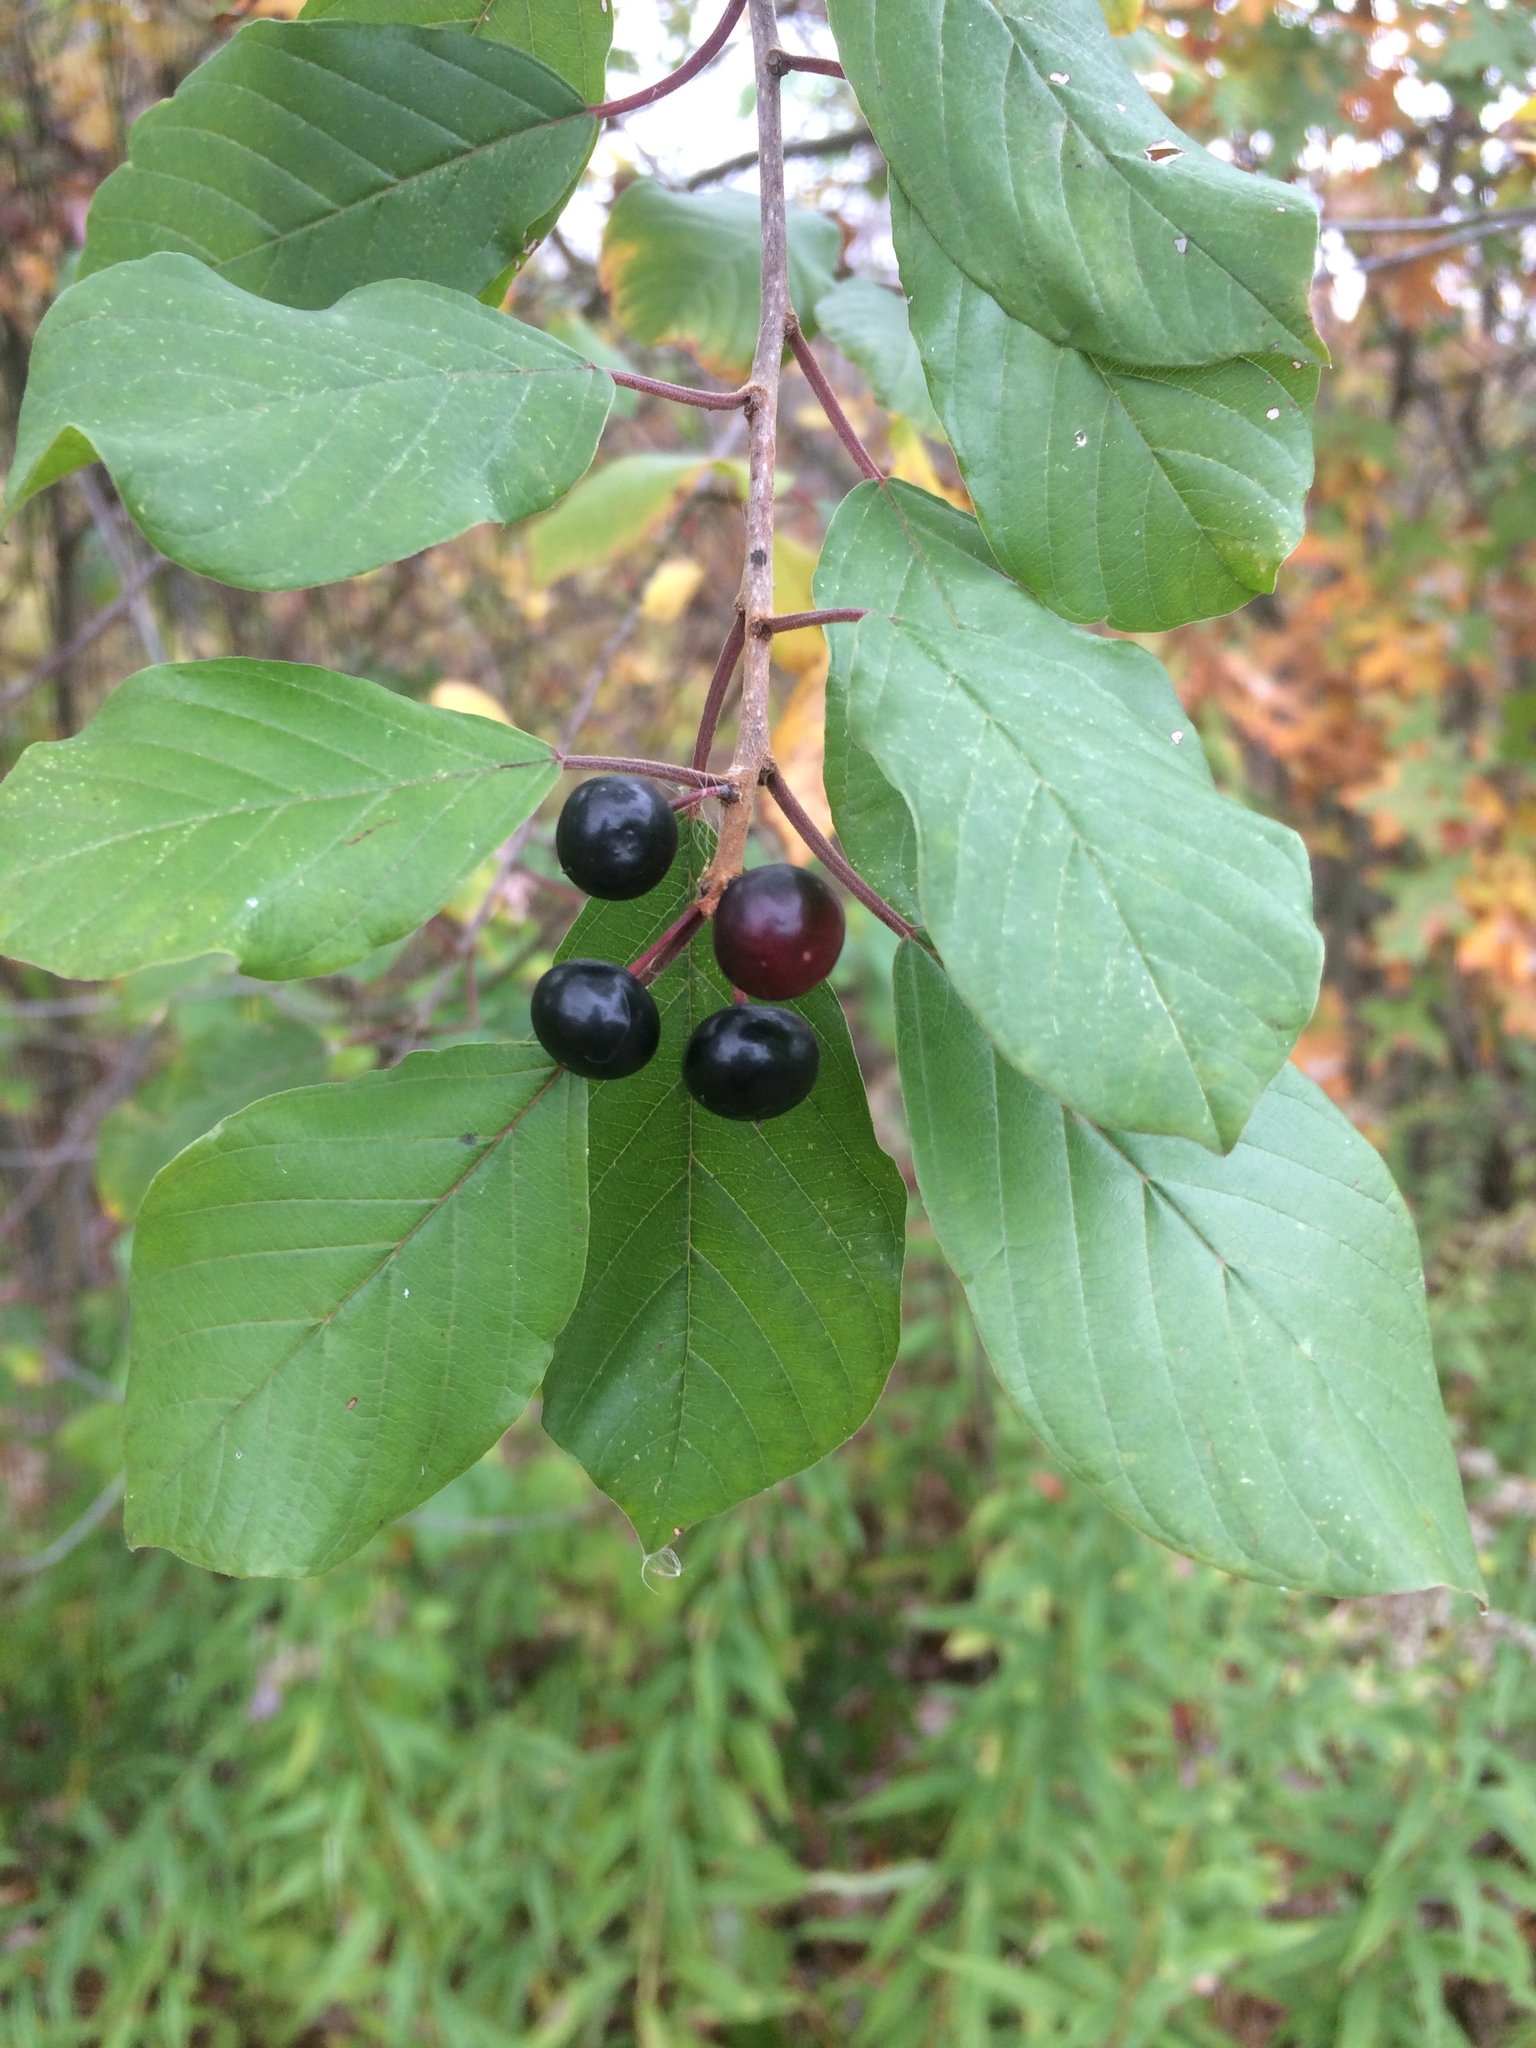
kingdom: Plantae
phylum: Tracheophyta
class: Magnoliopsida
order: Rosales
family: Rhamnaceae
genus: Frangula
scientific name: Frangula alnus
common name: Alder buckthorn
